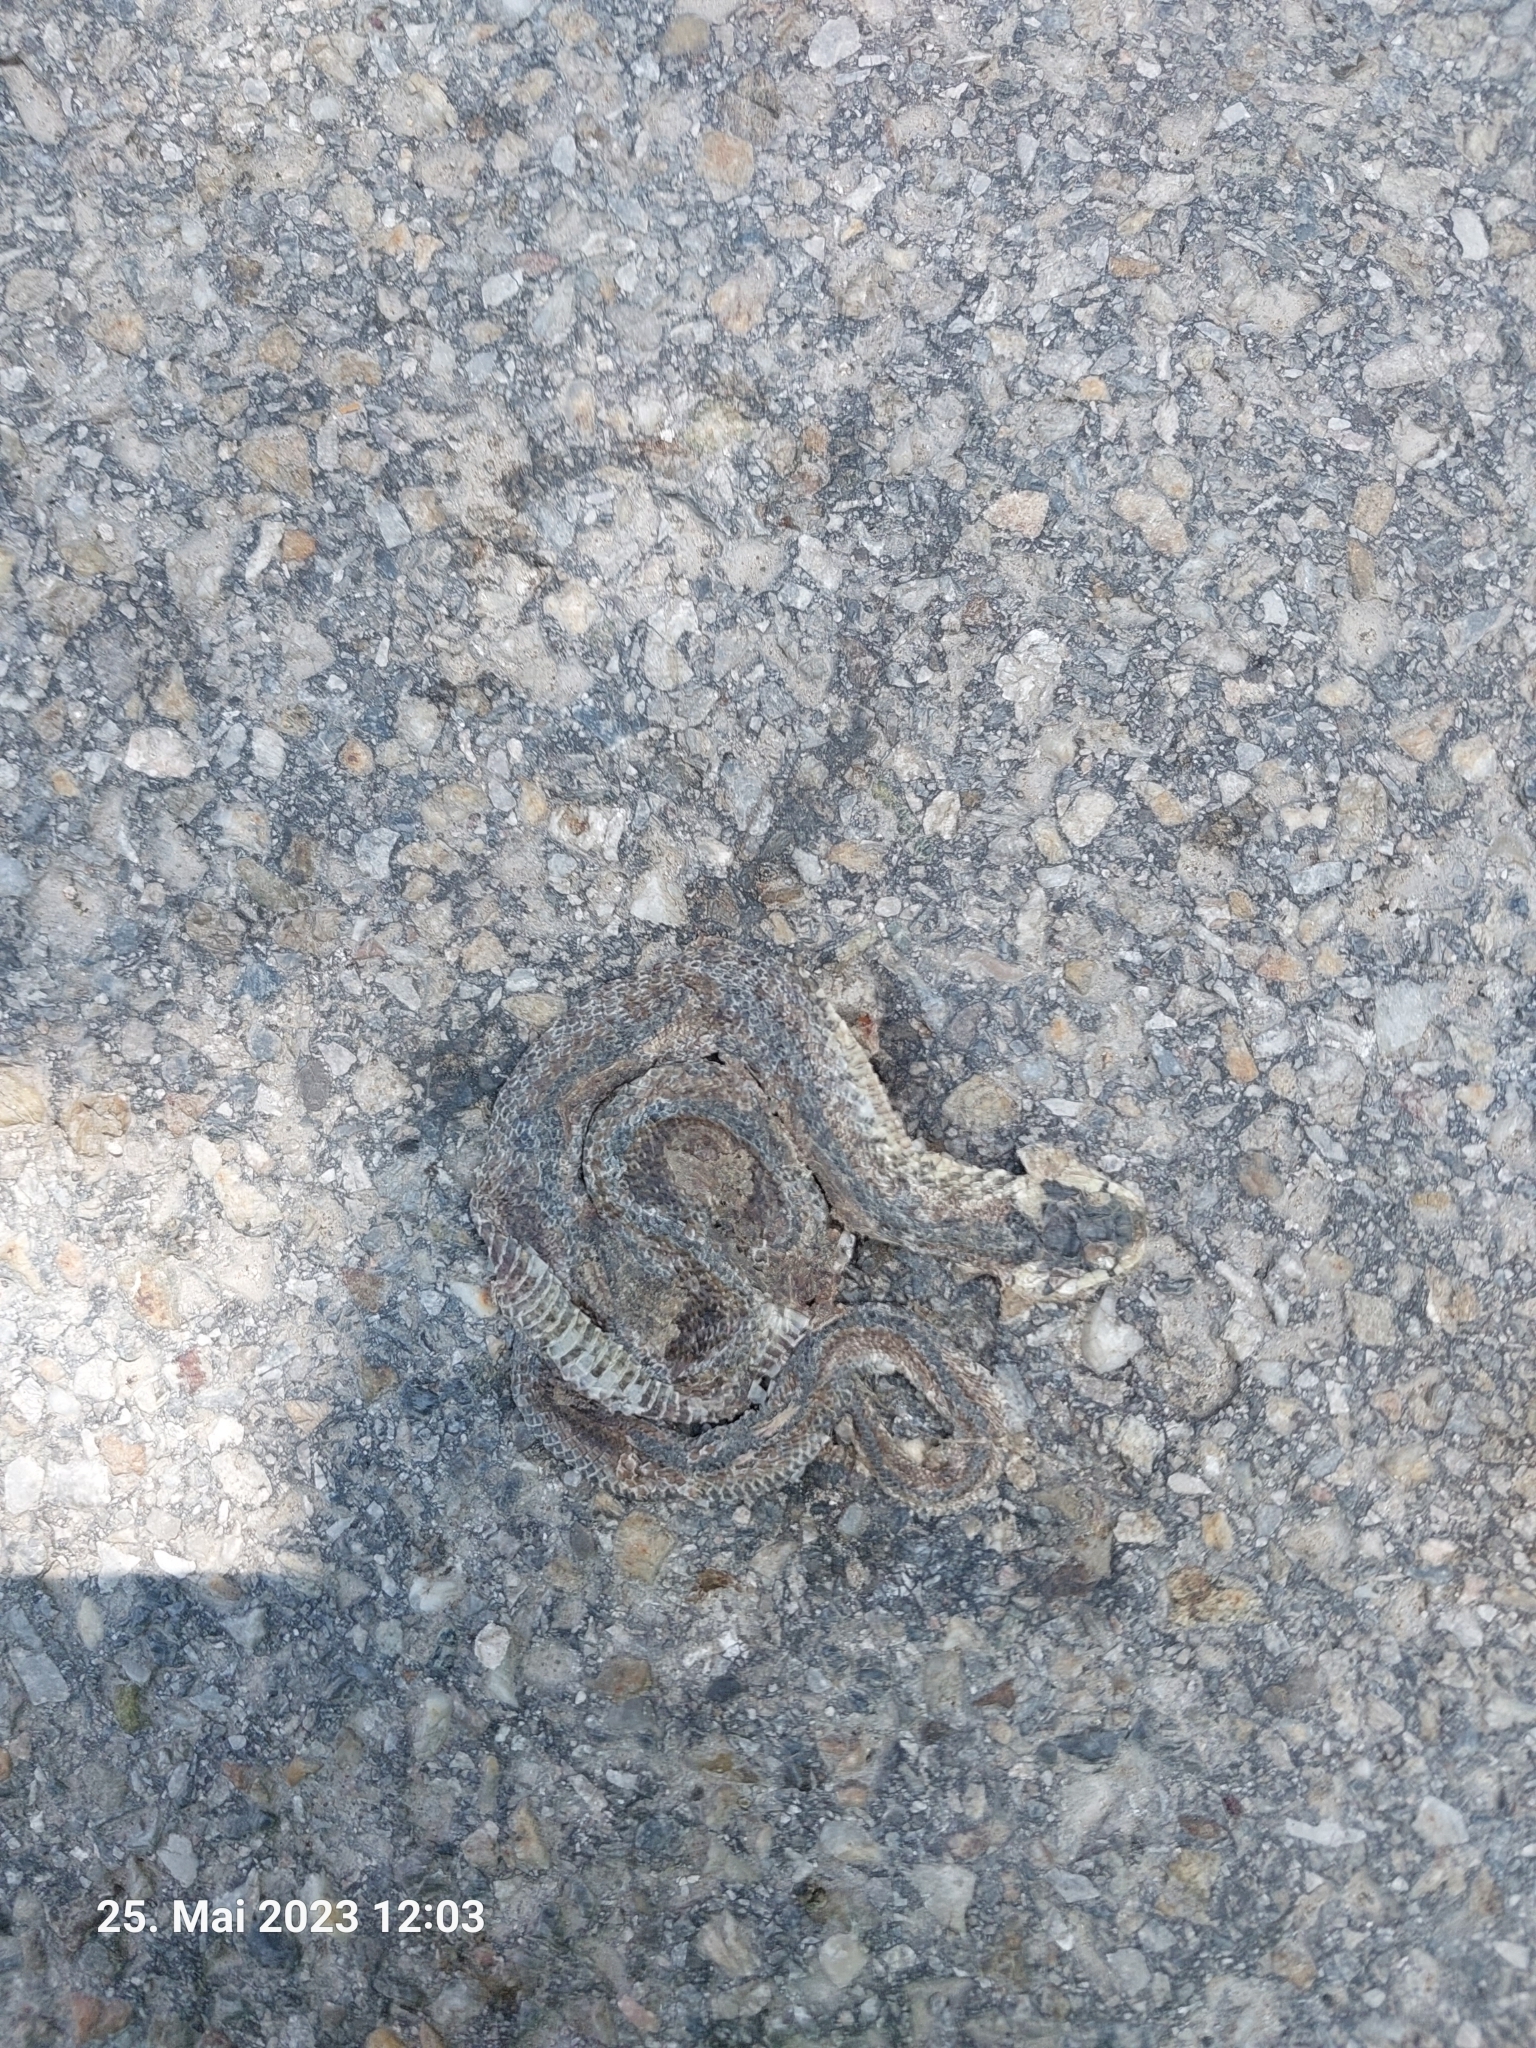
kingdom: Animalia
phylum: Chordata
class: Squamata
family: Colubridae
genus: Zamenis
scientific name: Zamenis longissimus
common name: Aesculapean snake
